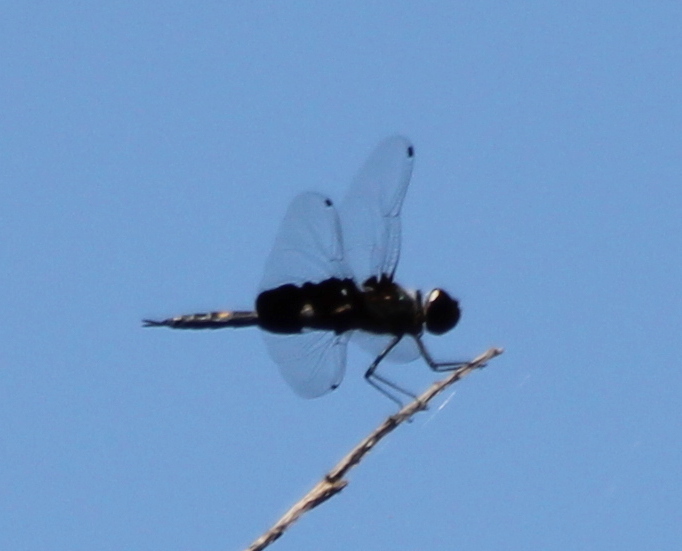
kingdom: Animalia
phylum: Arthropoda
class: Insecta
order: Odonata
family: Libellulidae
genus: Tramea
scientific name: Tramea lacerata
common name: Black saddlebags
